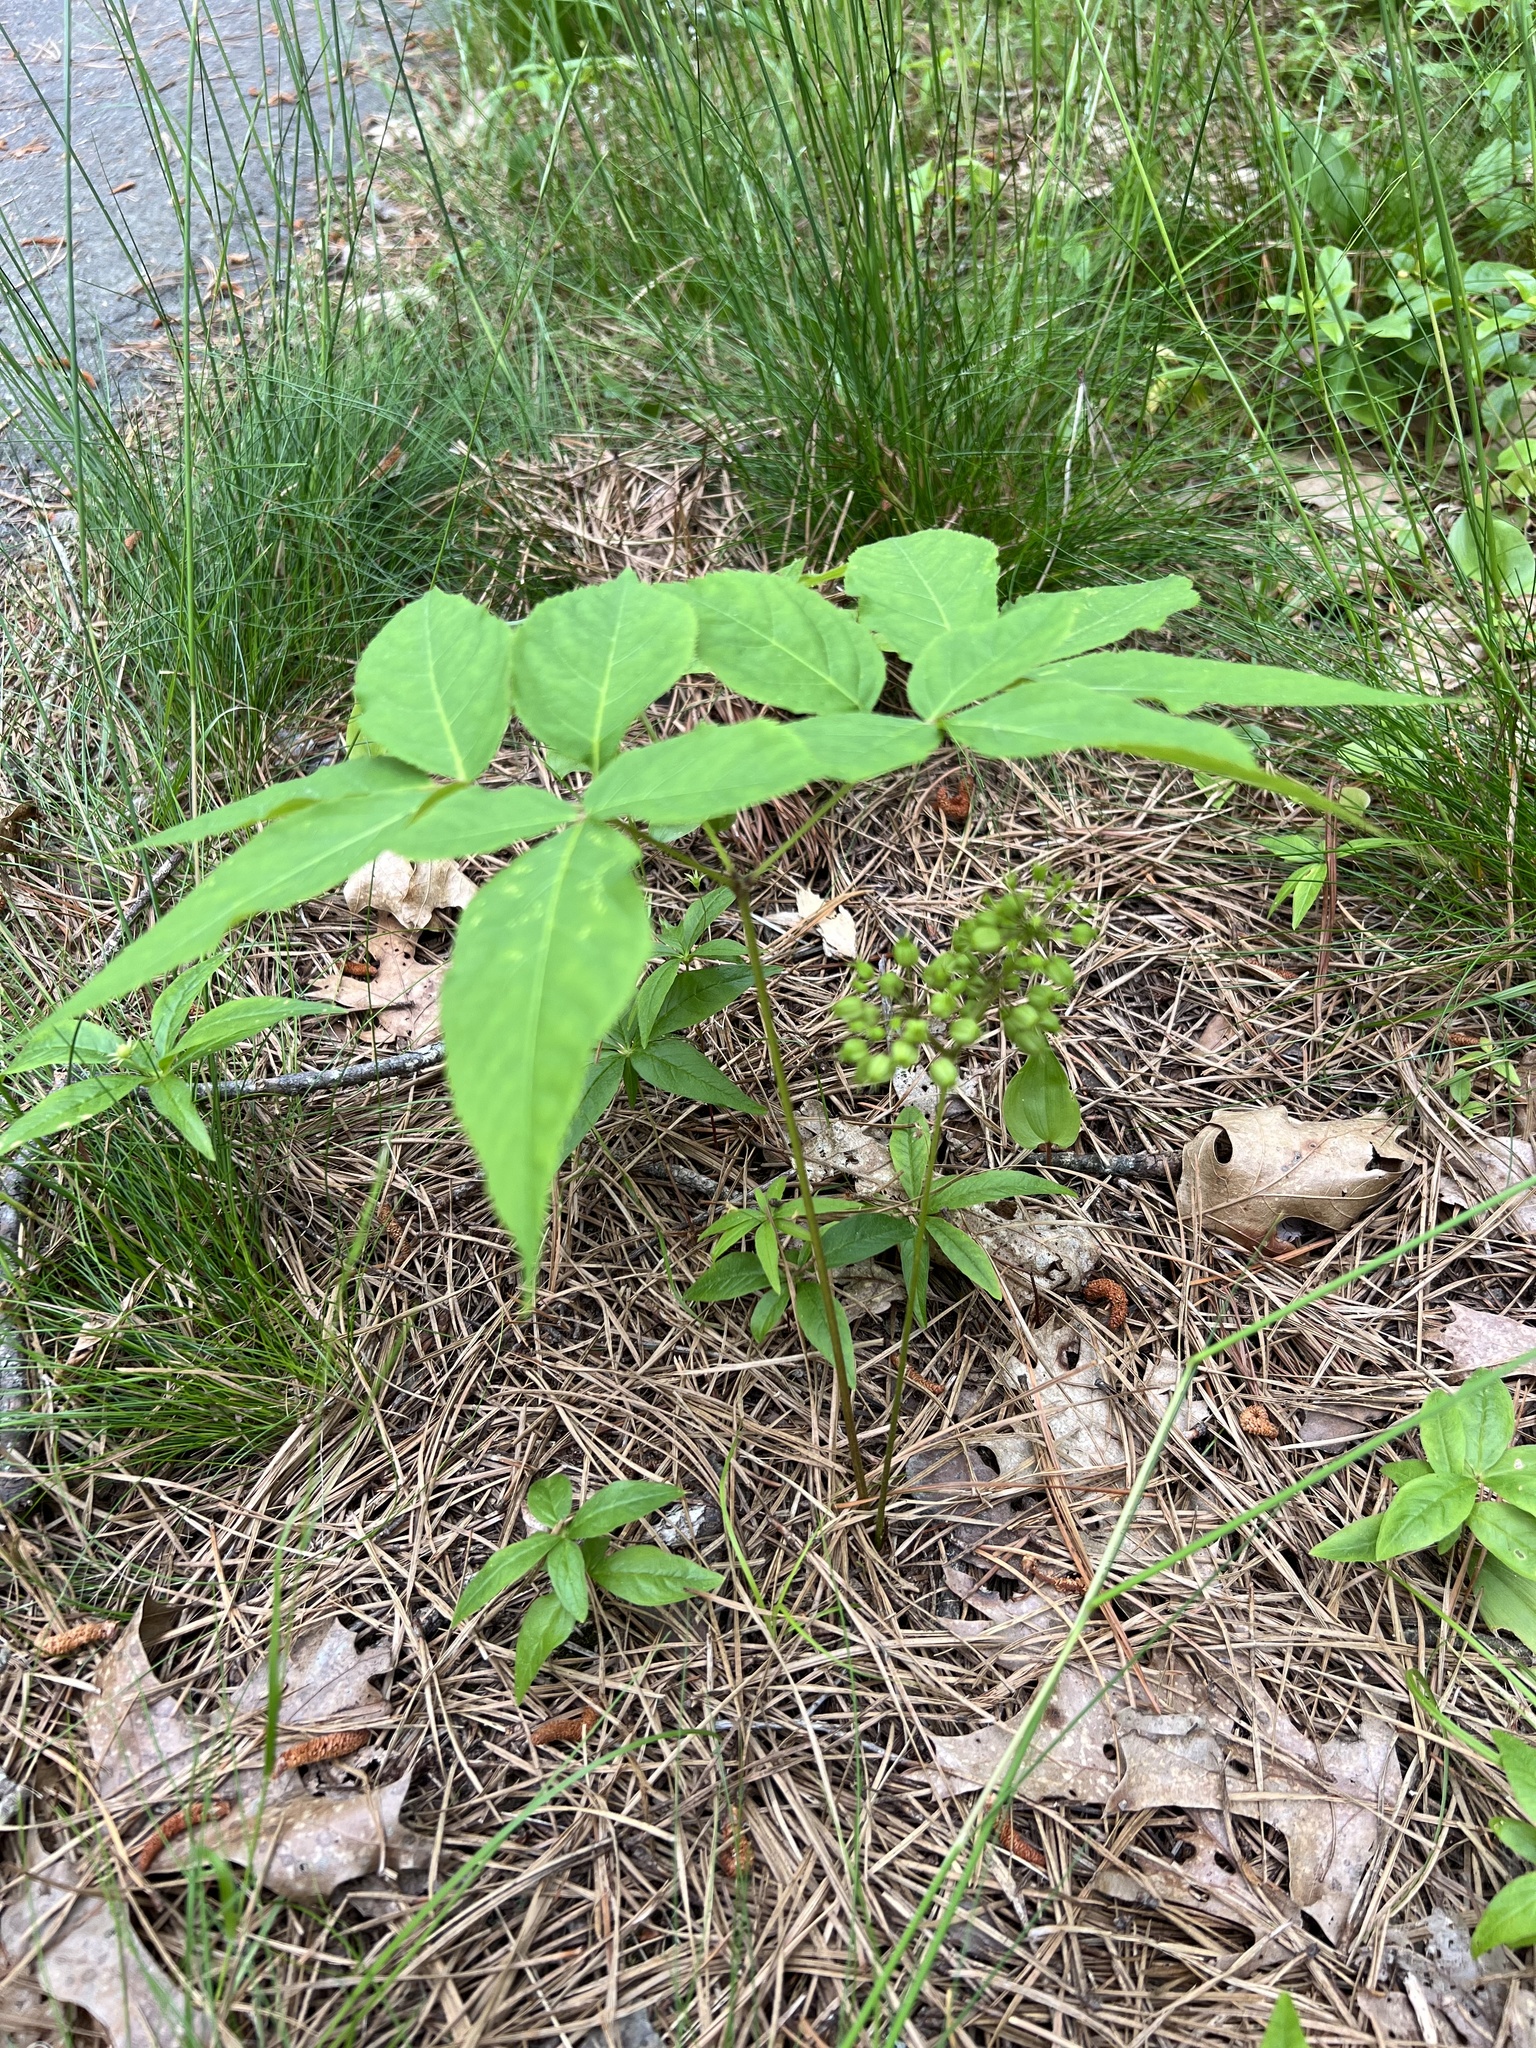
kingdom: Plantae
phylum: Tracheophyta
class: Magnoliopsida
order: Apiales
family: Araliaceae
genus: Aralia
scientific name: Aralia nudicaulis
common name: Wild sarsaparilla
